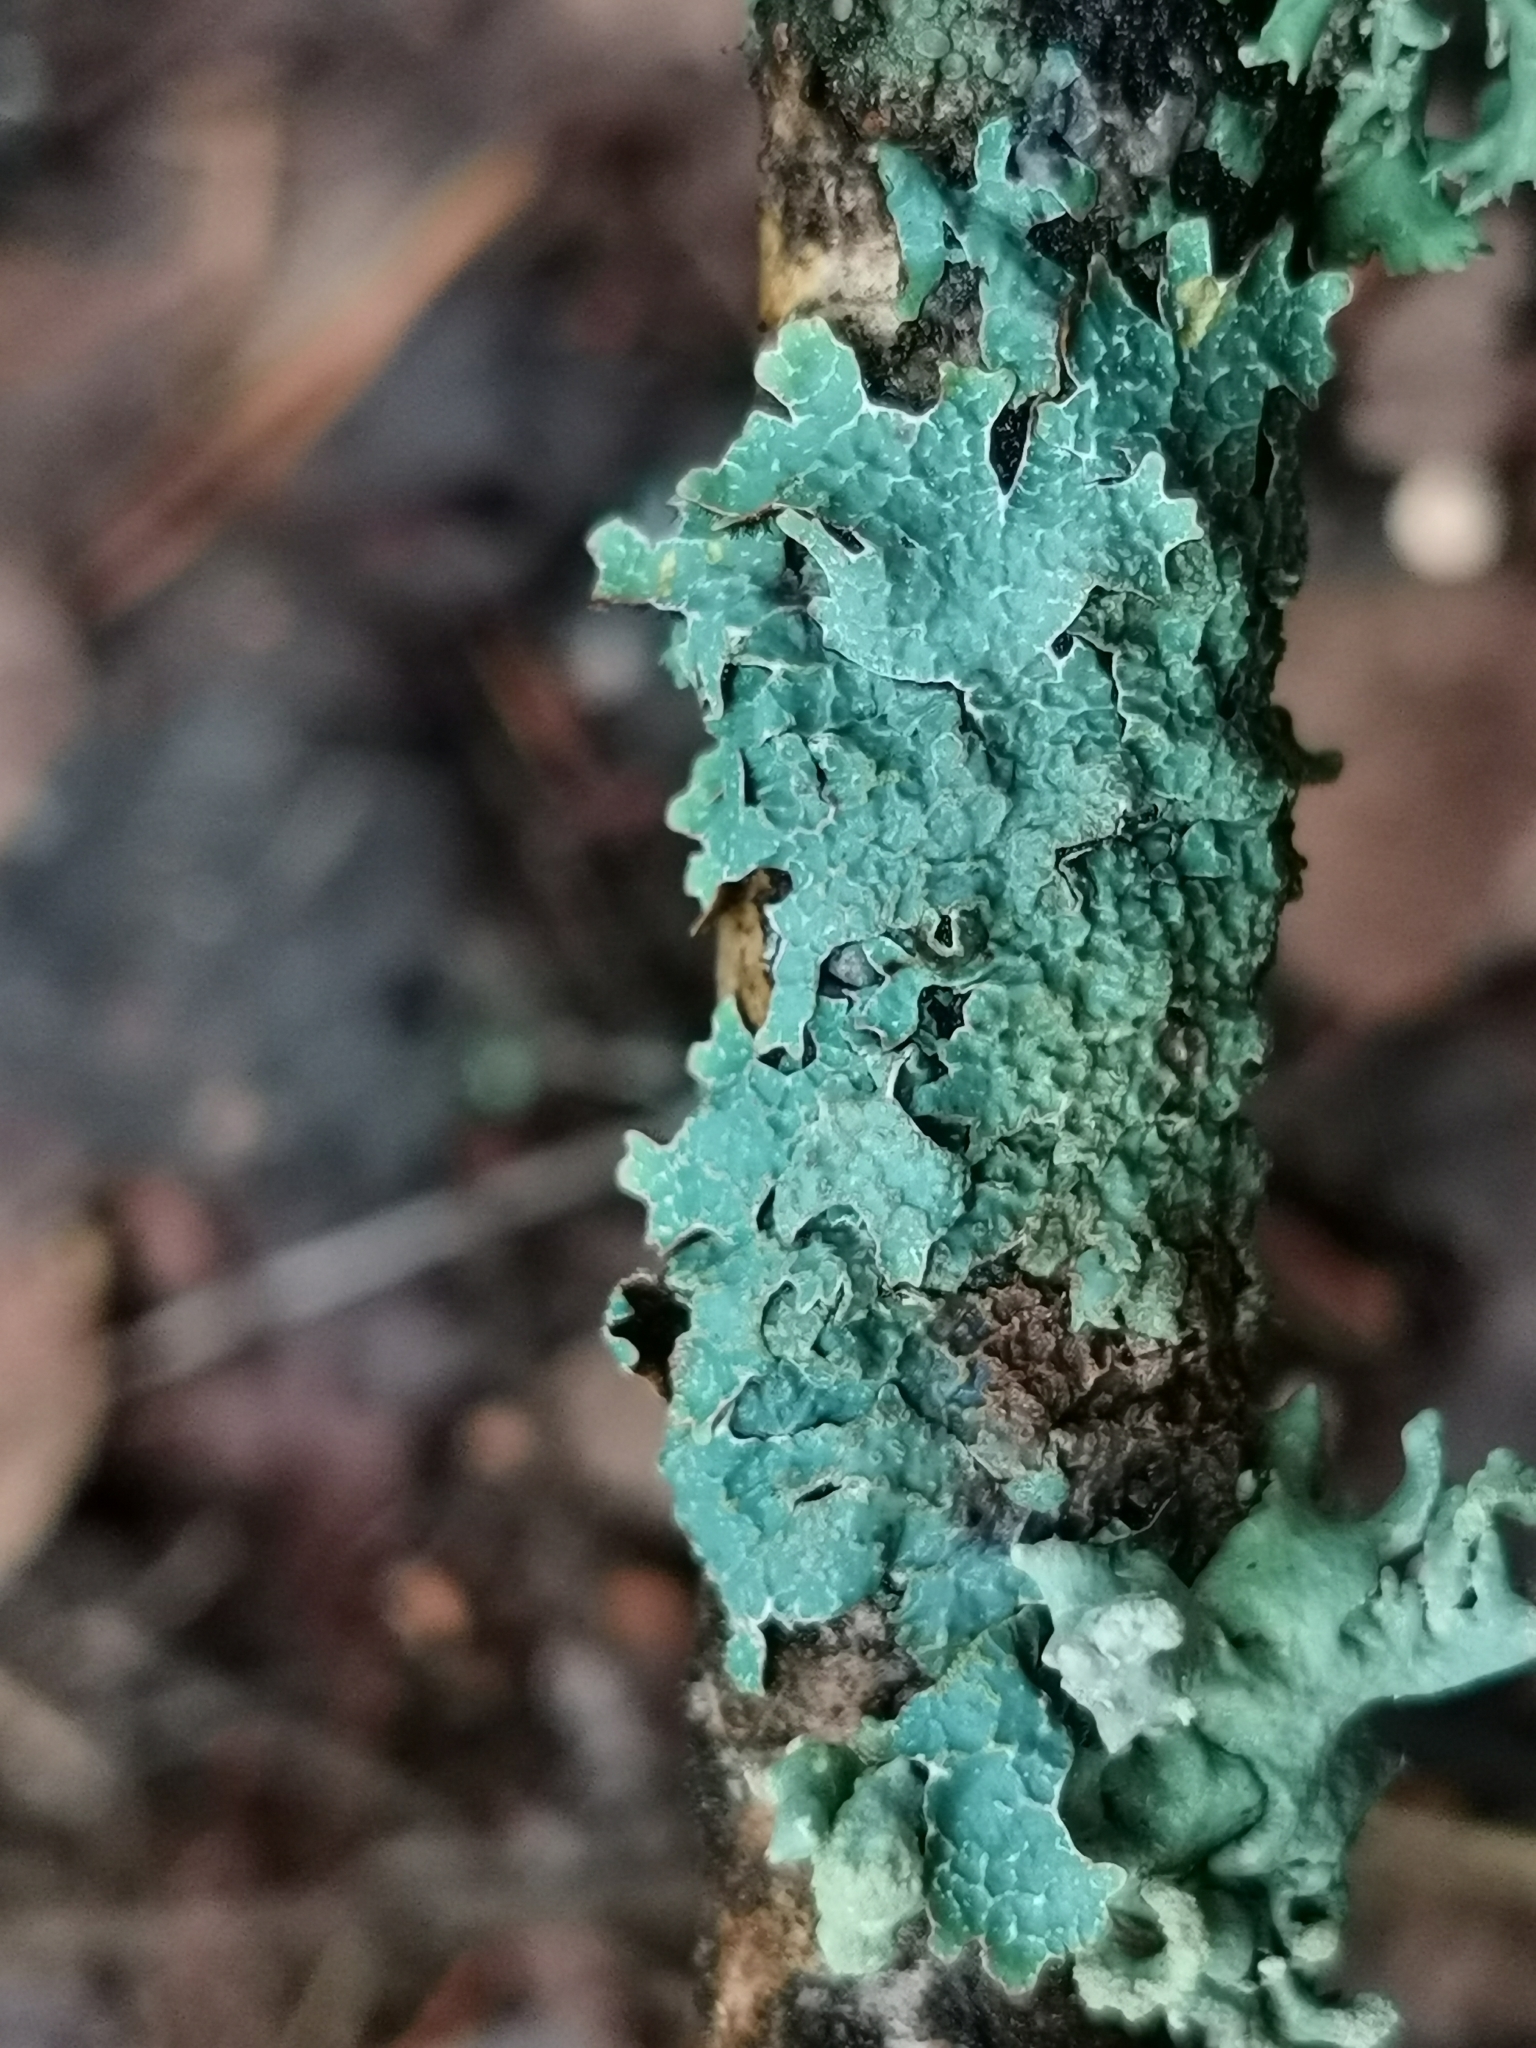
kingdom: Fungi
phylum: Ascomycota
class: Lecanoromycetes
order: Lecanorales
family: Parmeliaceae
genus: Parmelia
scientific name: Parmelia sulcata
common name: Netted shield lichen
